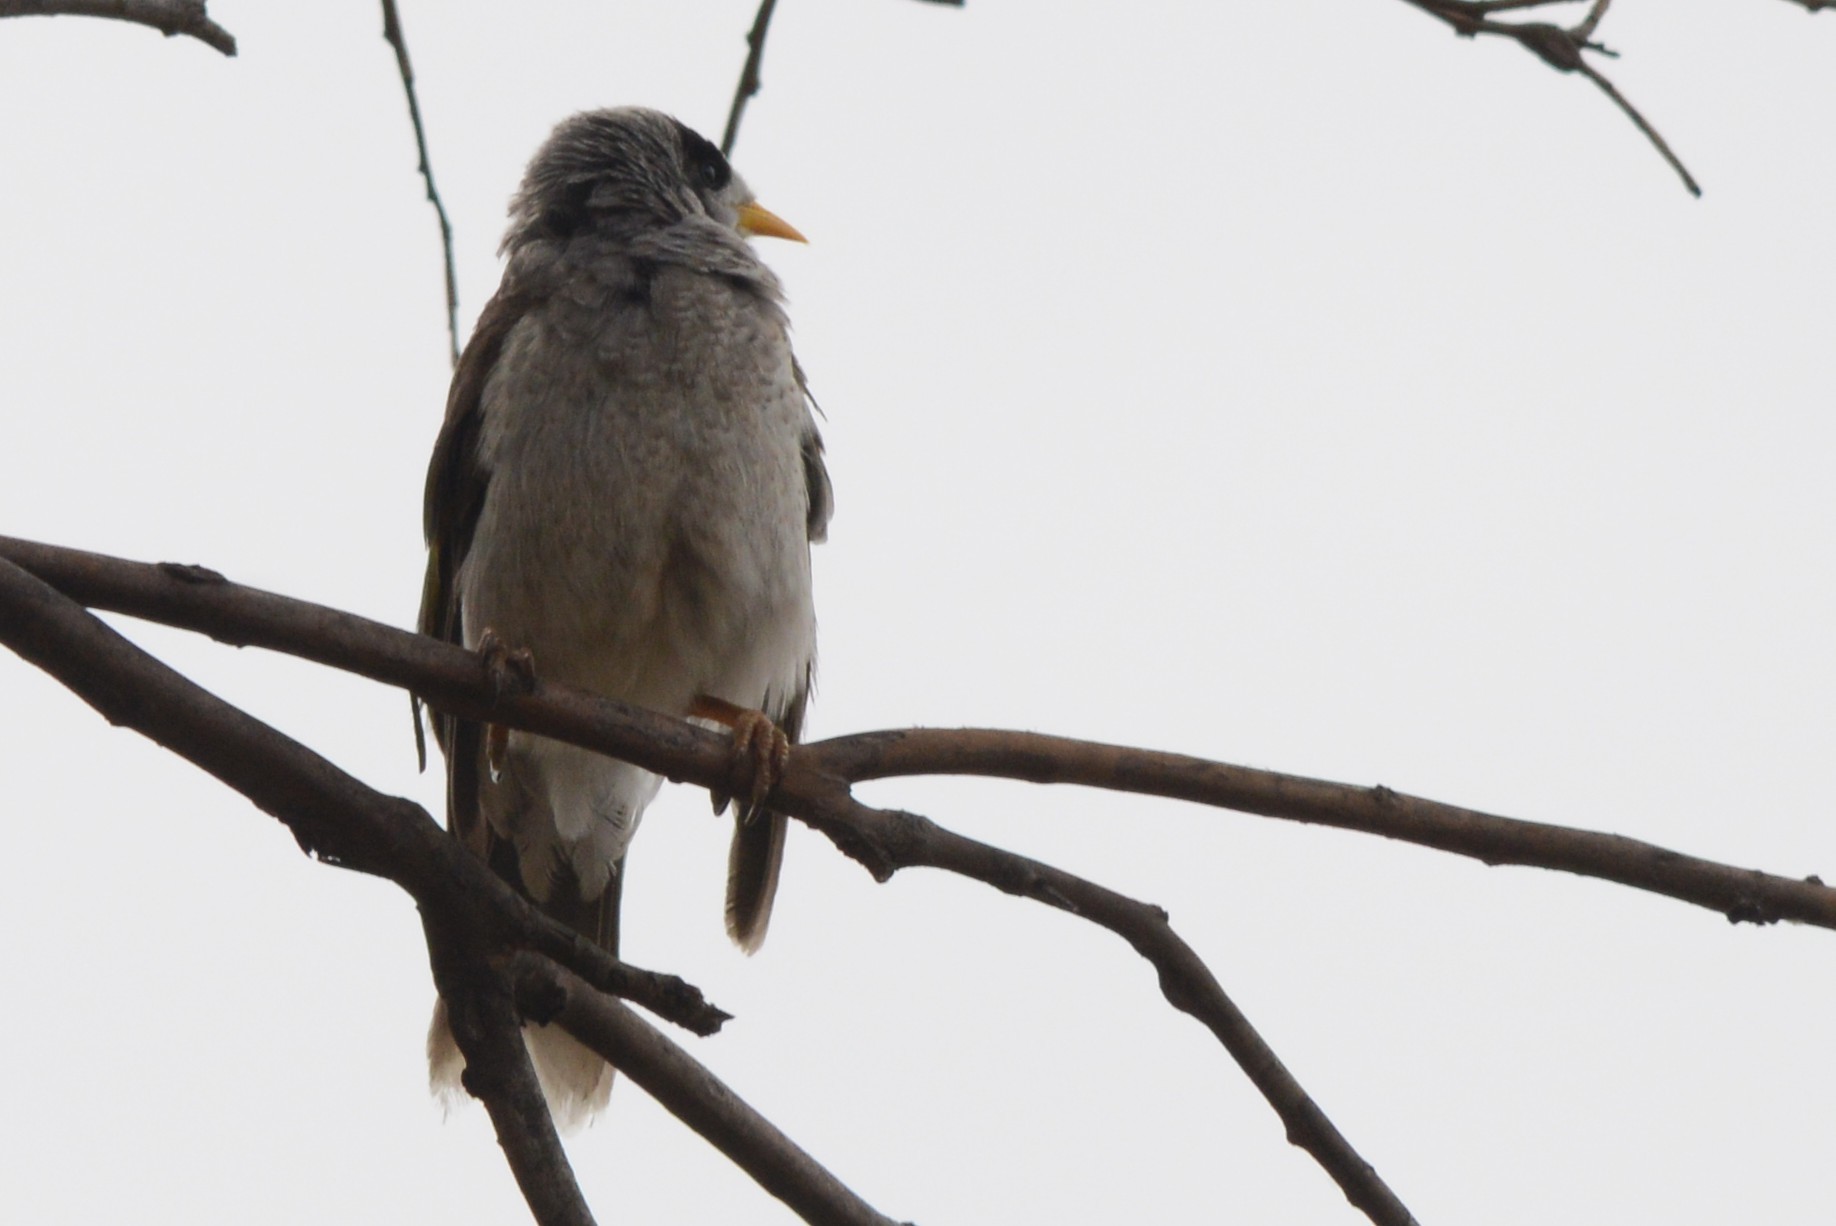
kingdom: Animalia
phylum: Chordata
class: Aves
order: Passeriformes
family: Meliphagidae
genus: Manorina
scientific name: Manorina melanocephala
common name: Noisy miner
